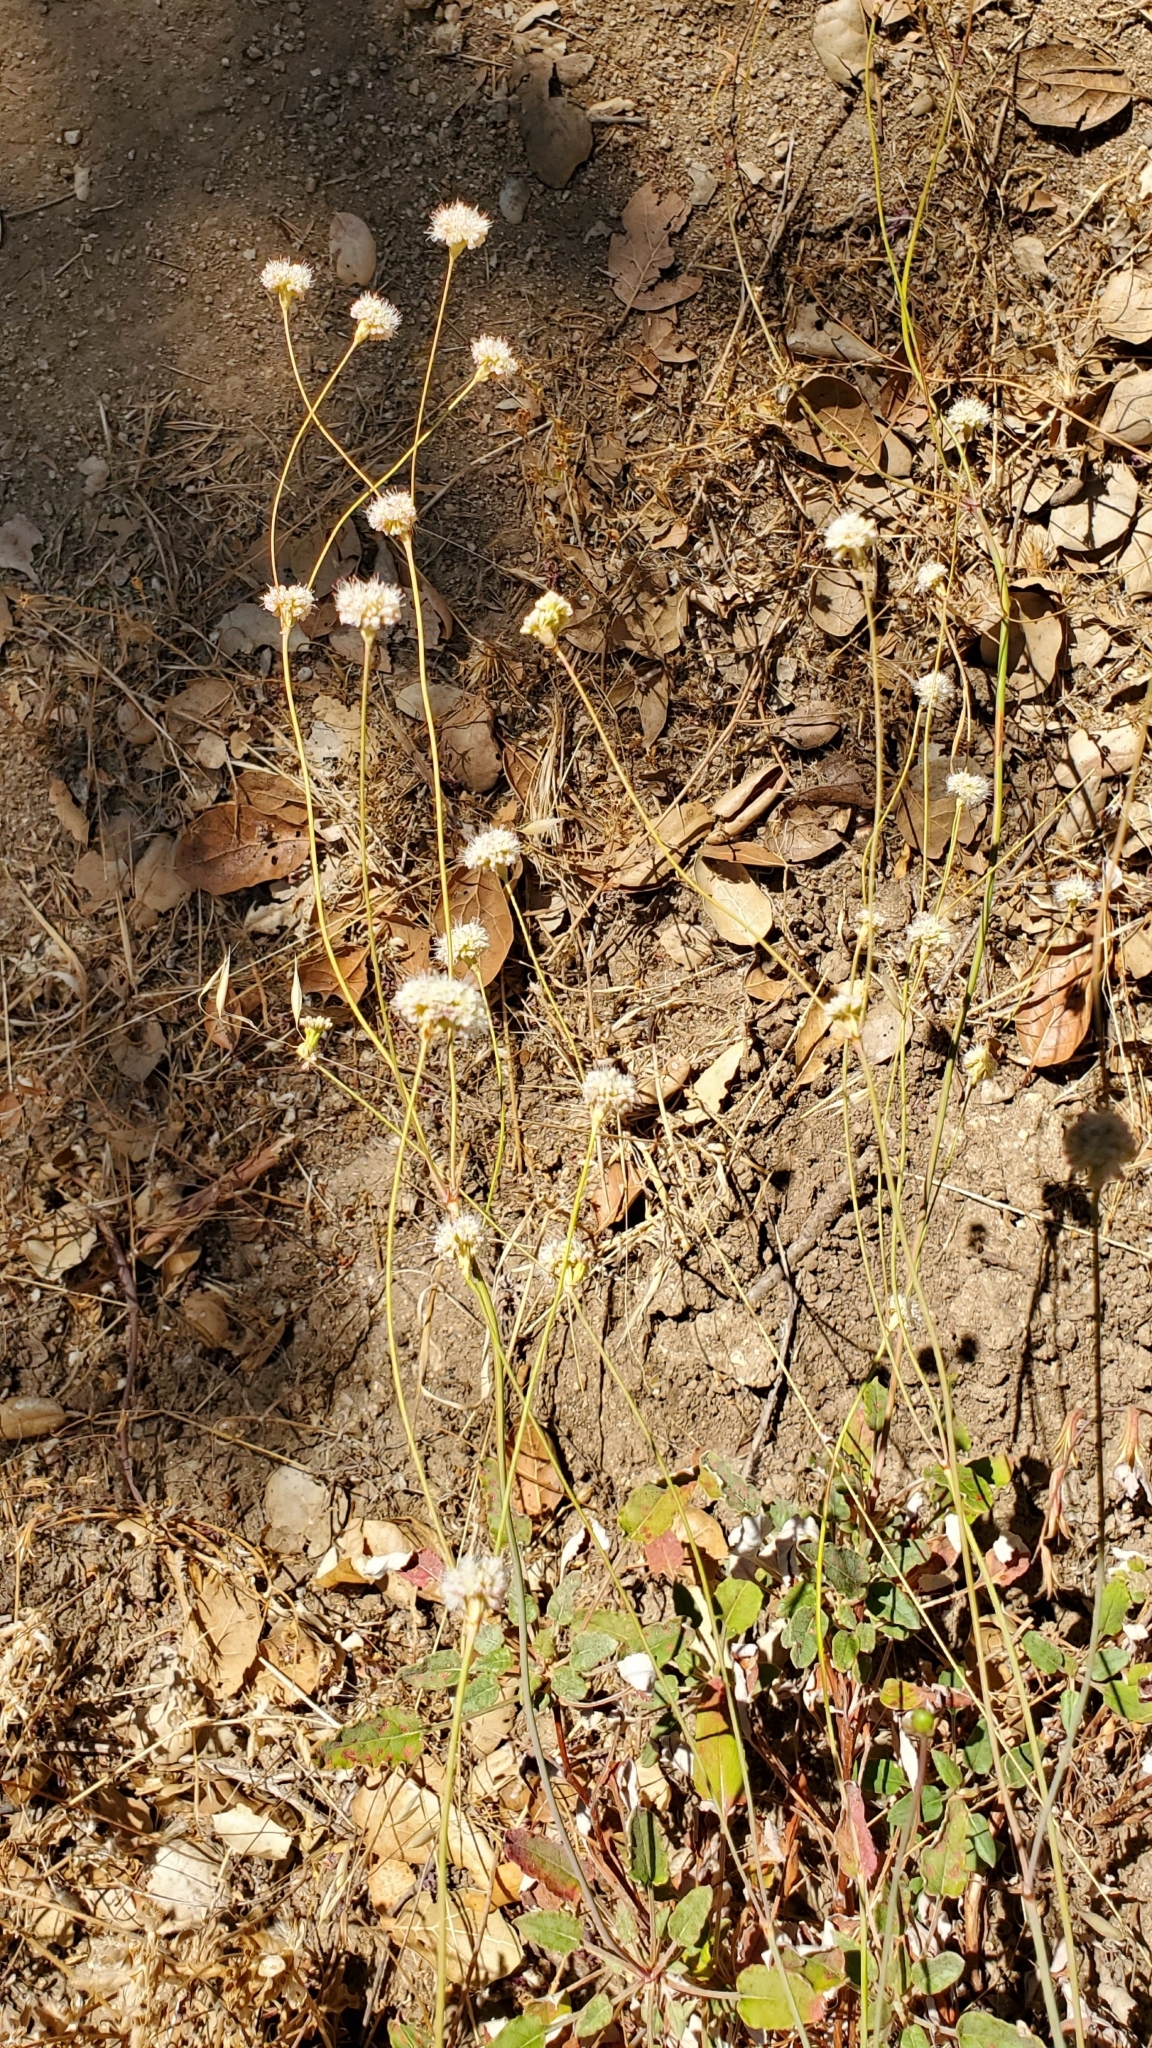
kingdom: Plantae
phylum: Tracheophyta
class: Magnoliopsida
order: Caryophyllales
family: Polygonaceae
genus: Eriogonum
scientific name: Eriogonum nudum
